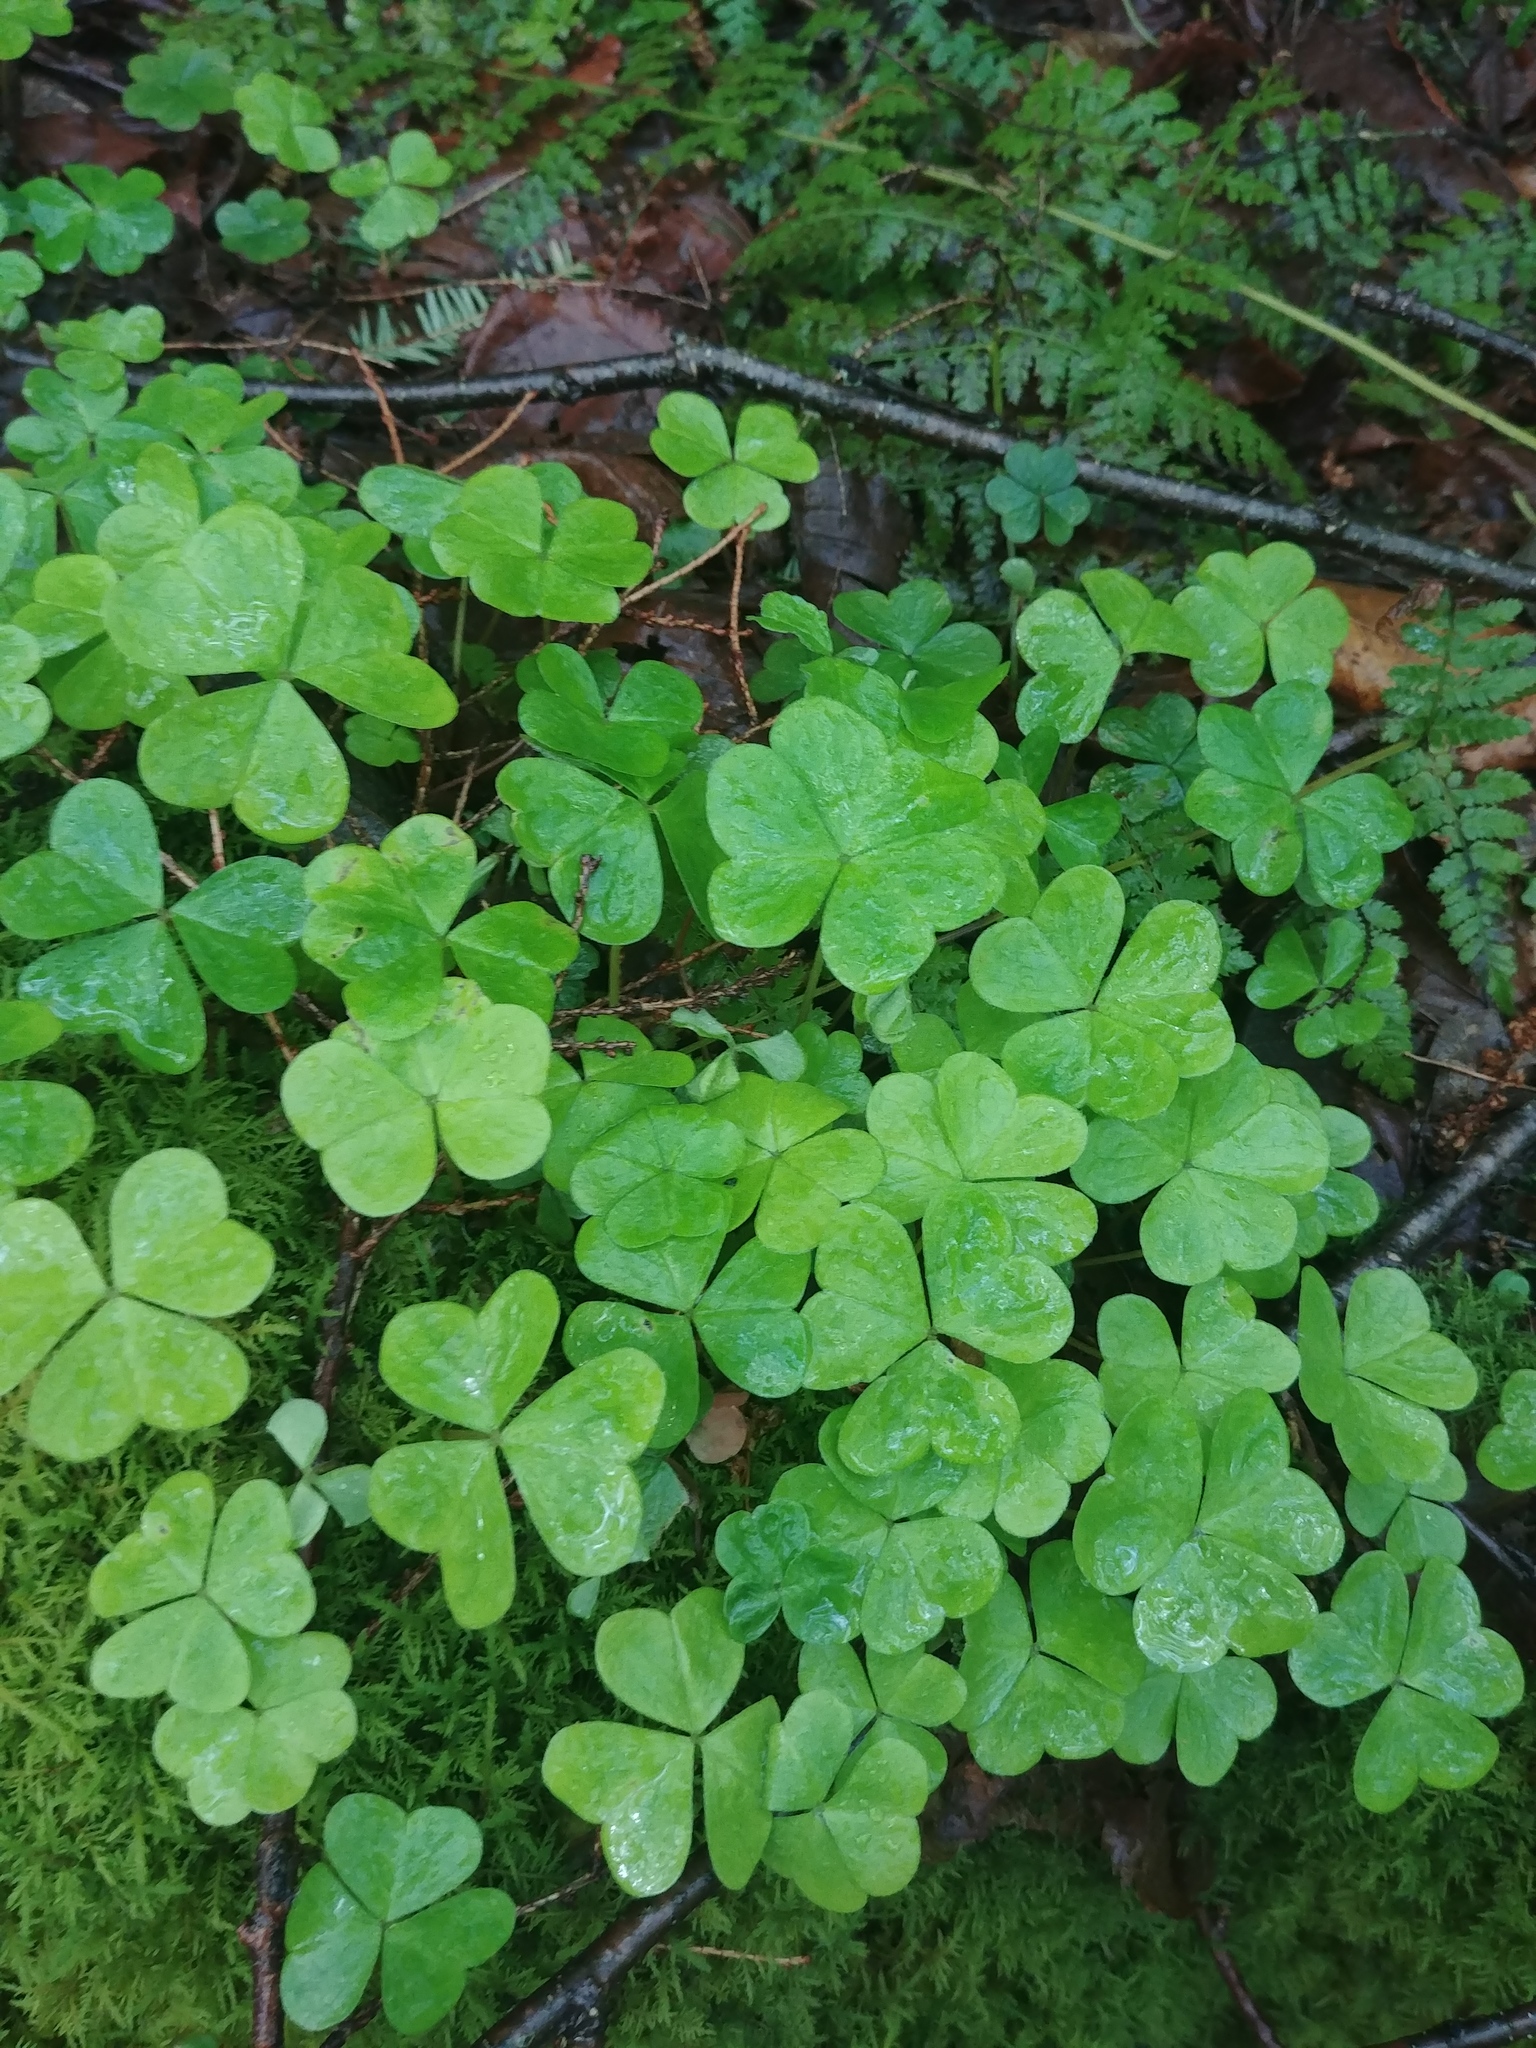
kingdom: Plantae
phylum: Tracheophyta
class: Magnoliopsida
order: Oxalidales
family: Oxalidaceae
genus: Oxalis
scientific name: Oxalis
